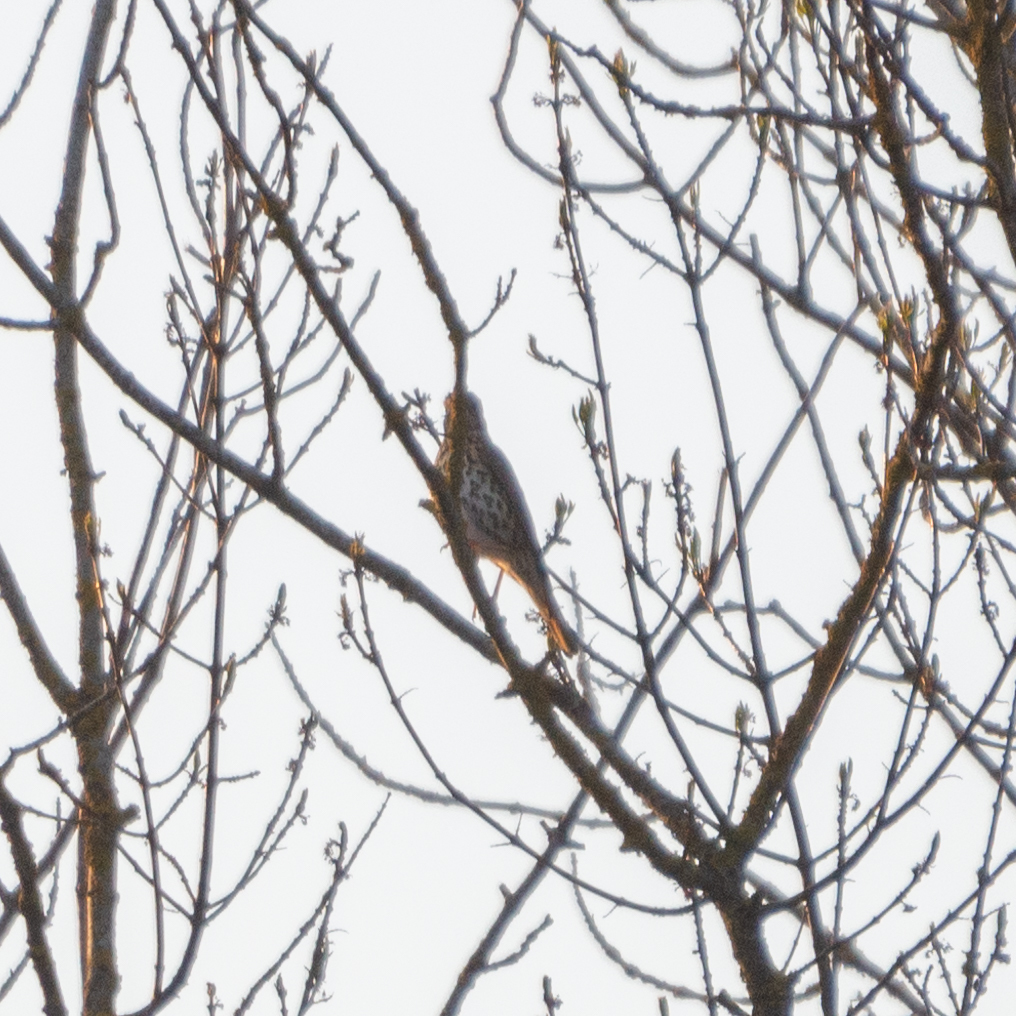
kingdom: Animalia
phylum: Chordata
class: Aves
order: Passeriformes
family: Turdidae
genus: Turdus
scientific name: Turdus philomelos
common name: Song thrush
